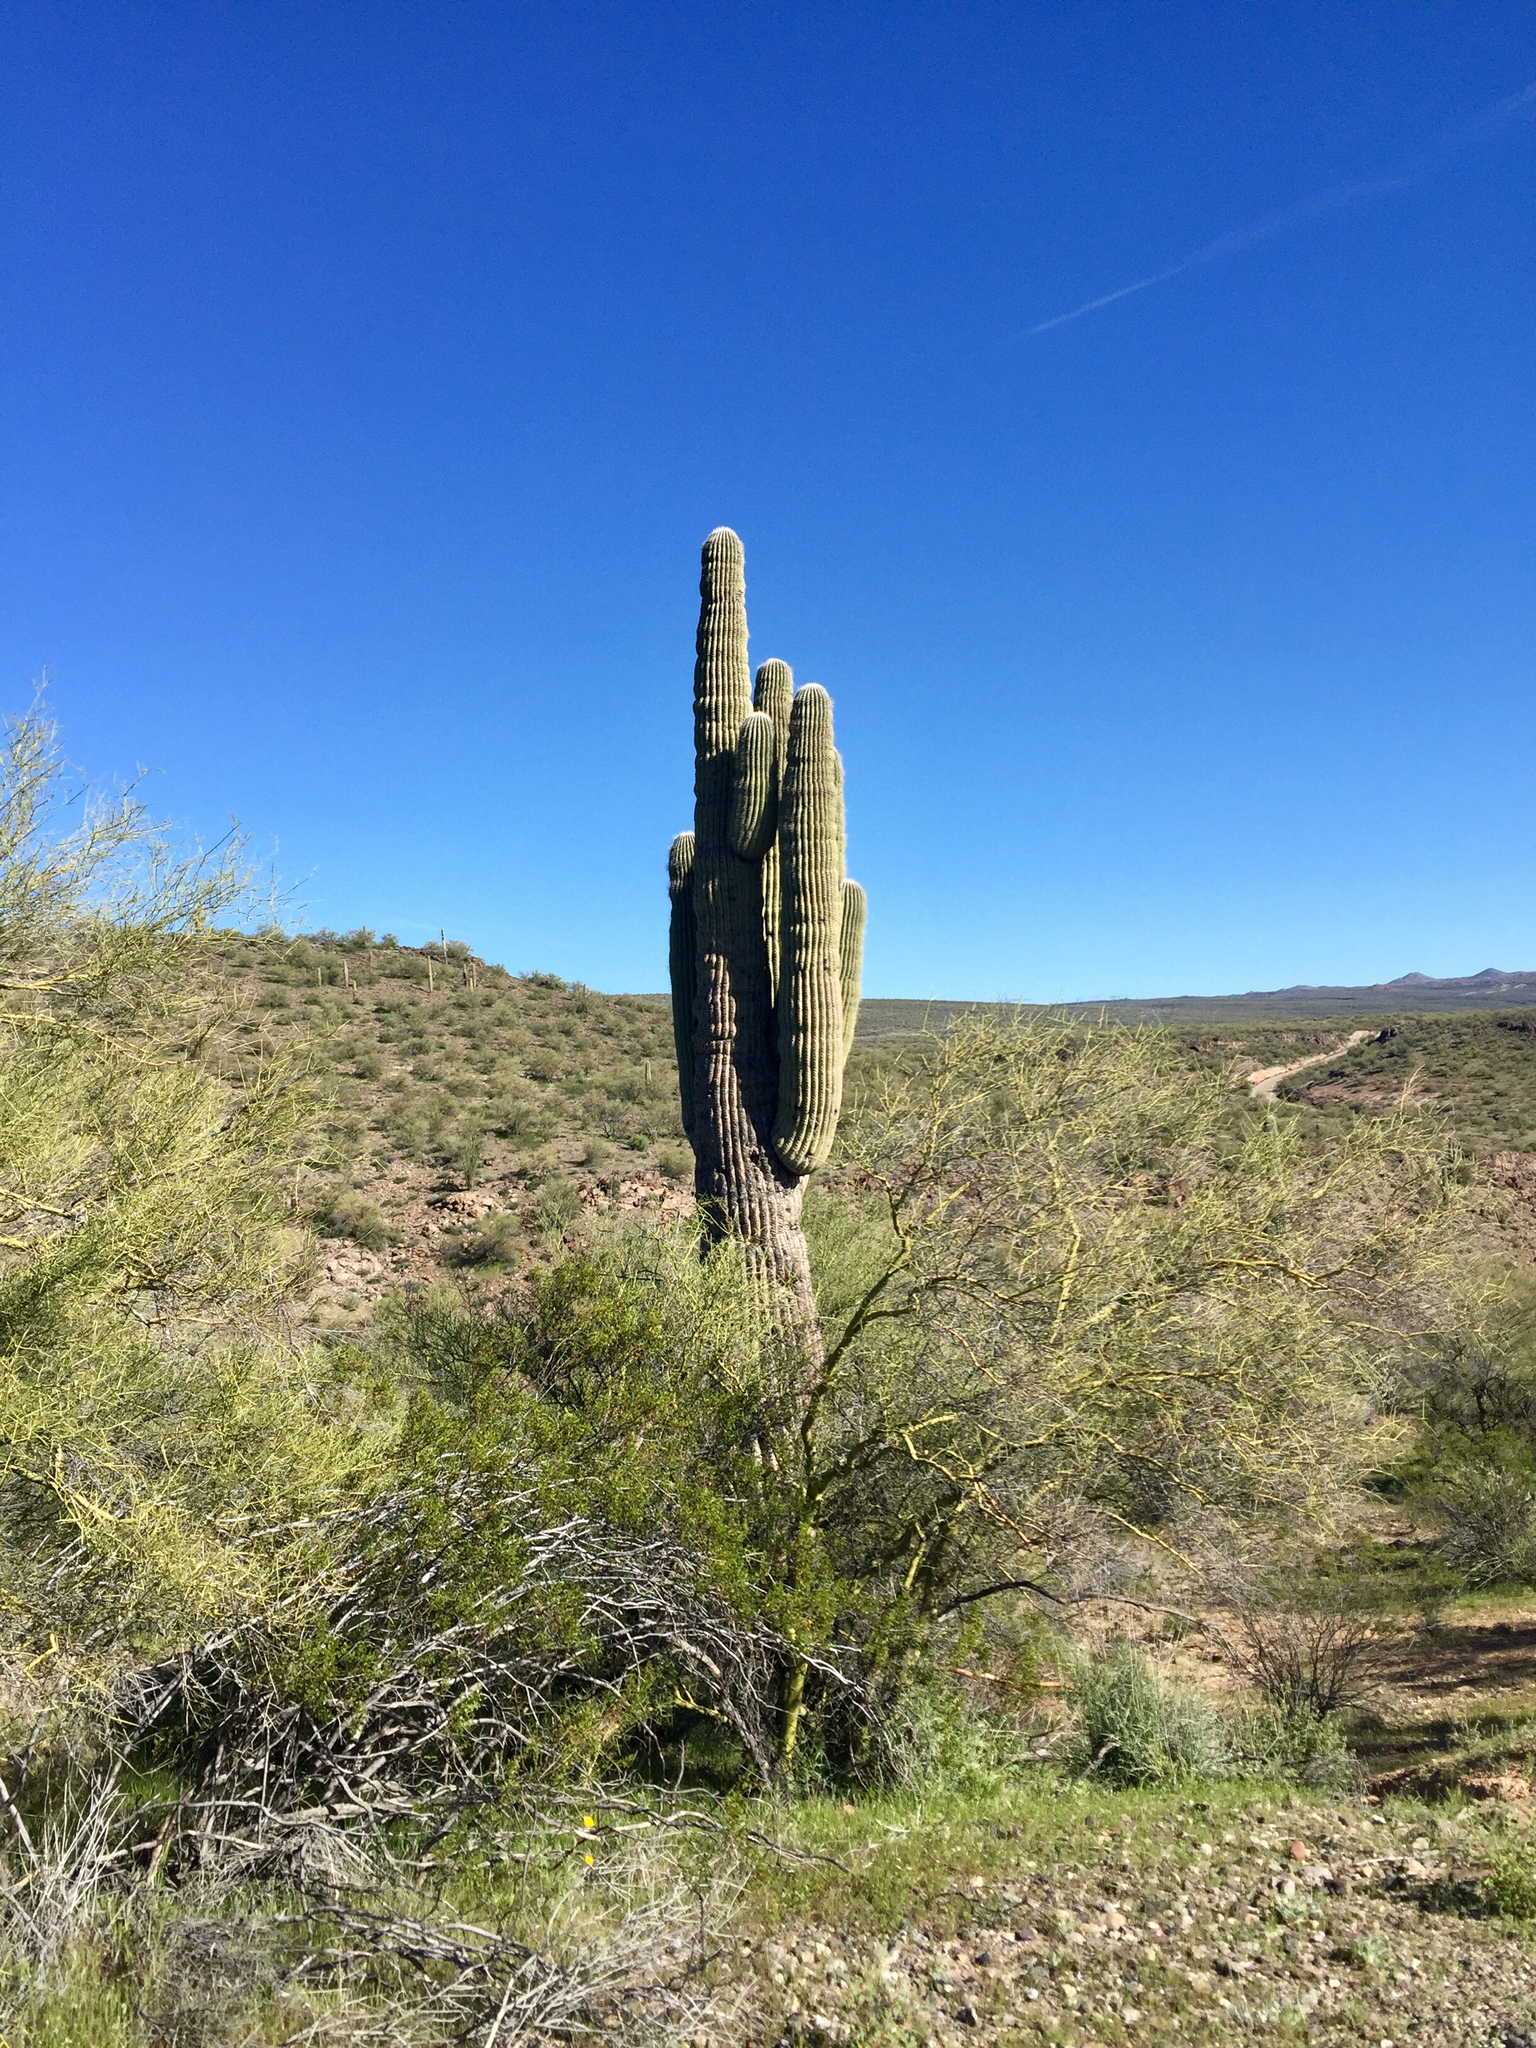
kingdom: Plantae
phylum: Tracheophyta
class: Magnoliopsida
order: Caryophyllales
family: Cactaceae
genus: Carnegiea
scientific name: Carnegiea gigantea
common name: Saguaro
